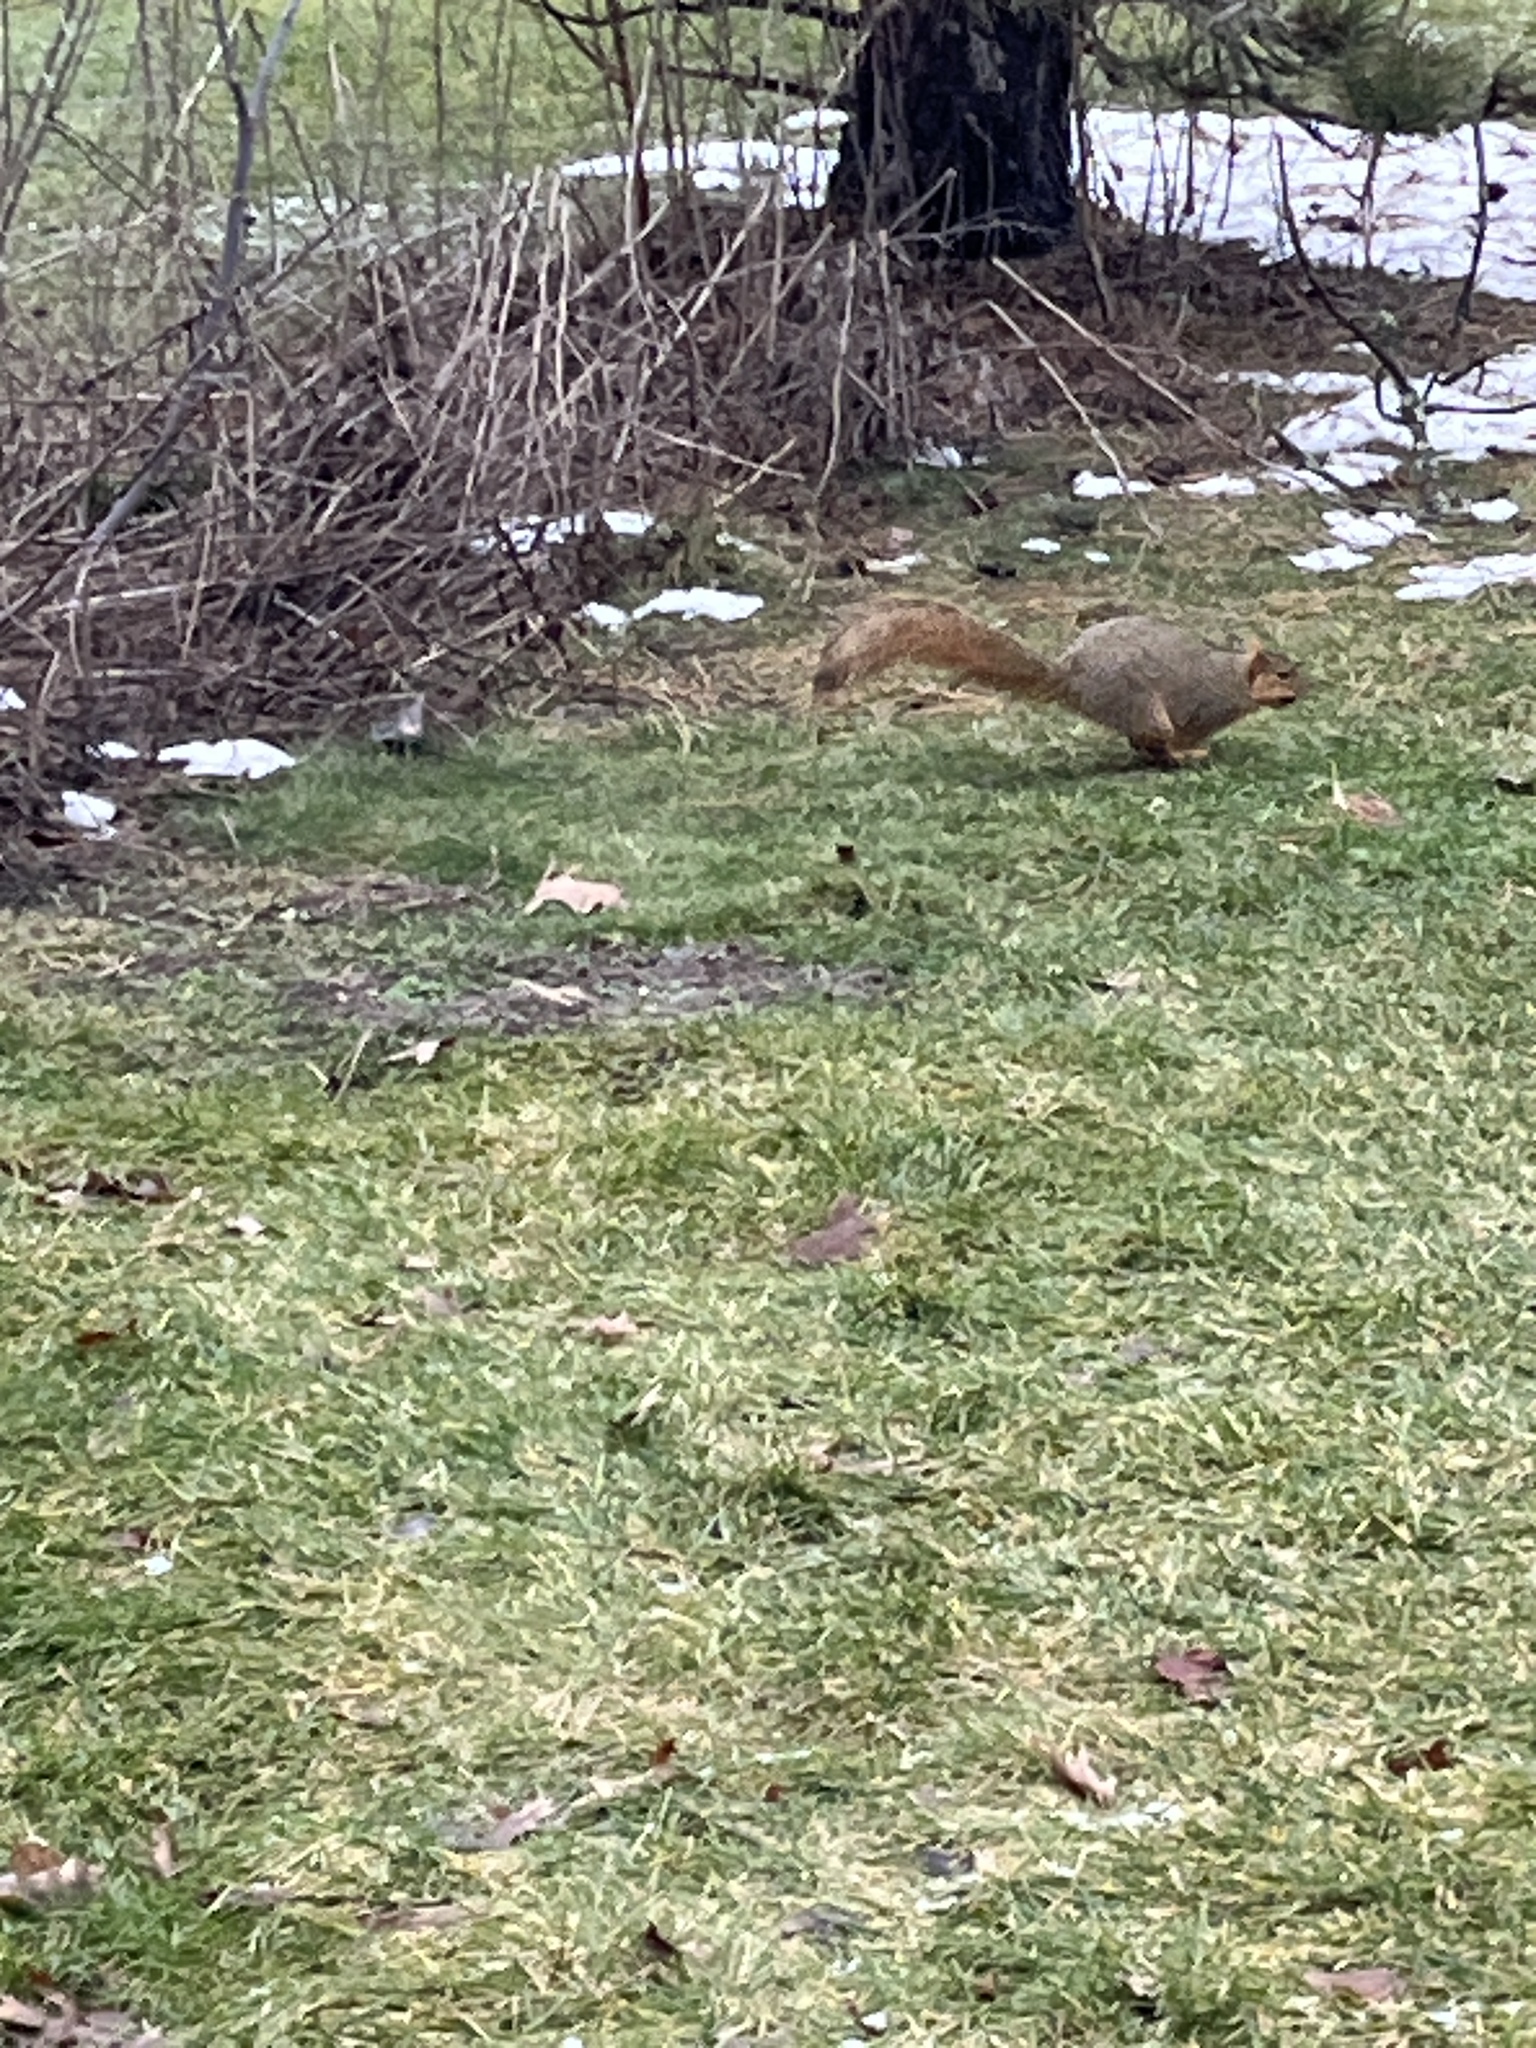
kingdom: Animalia
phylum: Chordata
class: Mammalia
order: Rodentia
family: Sciuridae
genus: Sciurus
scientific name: Sciurus niger
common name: Fox squirrel
